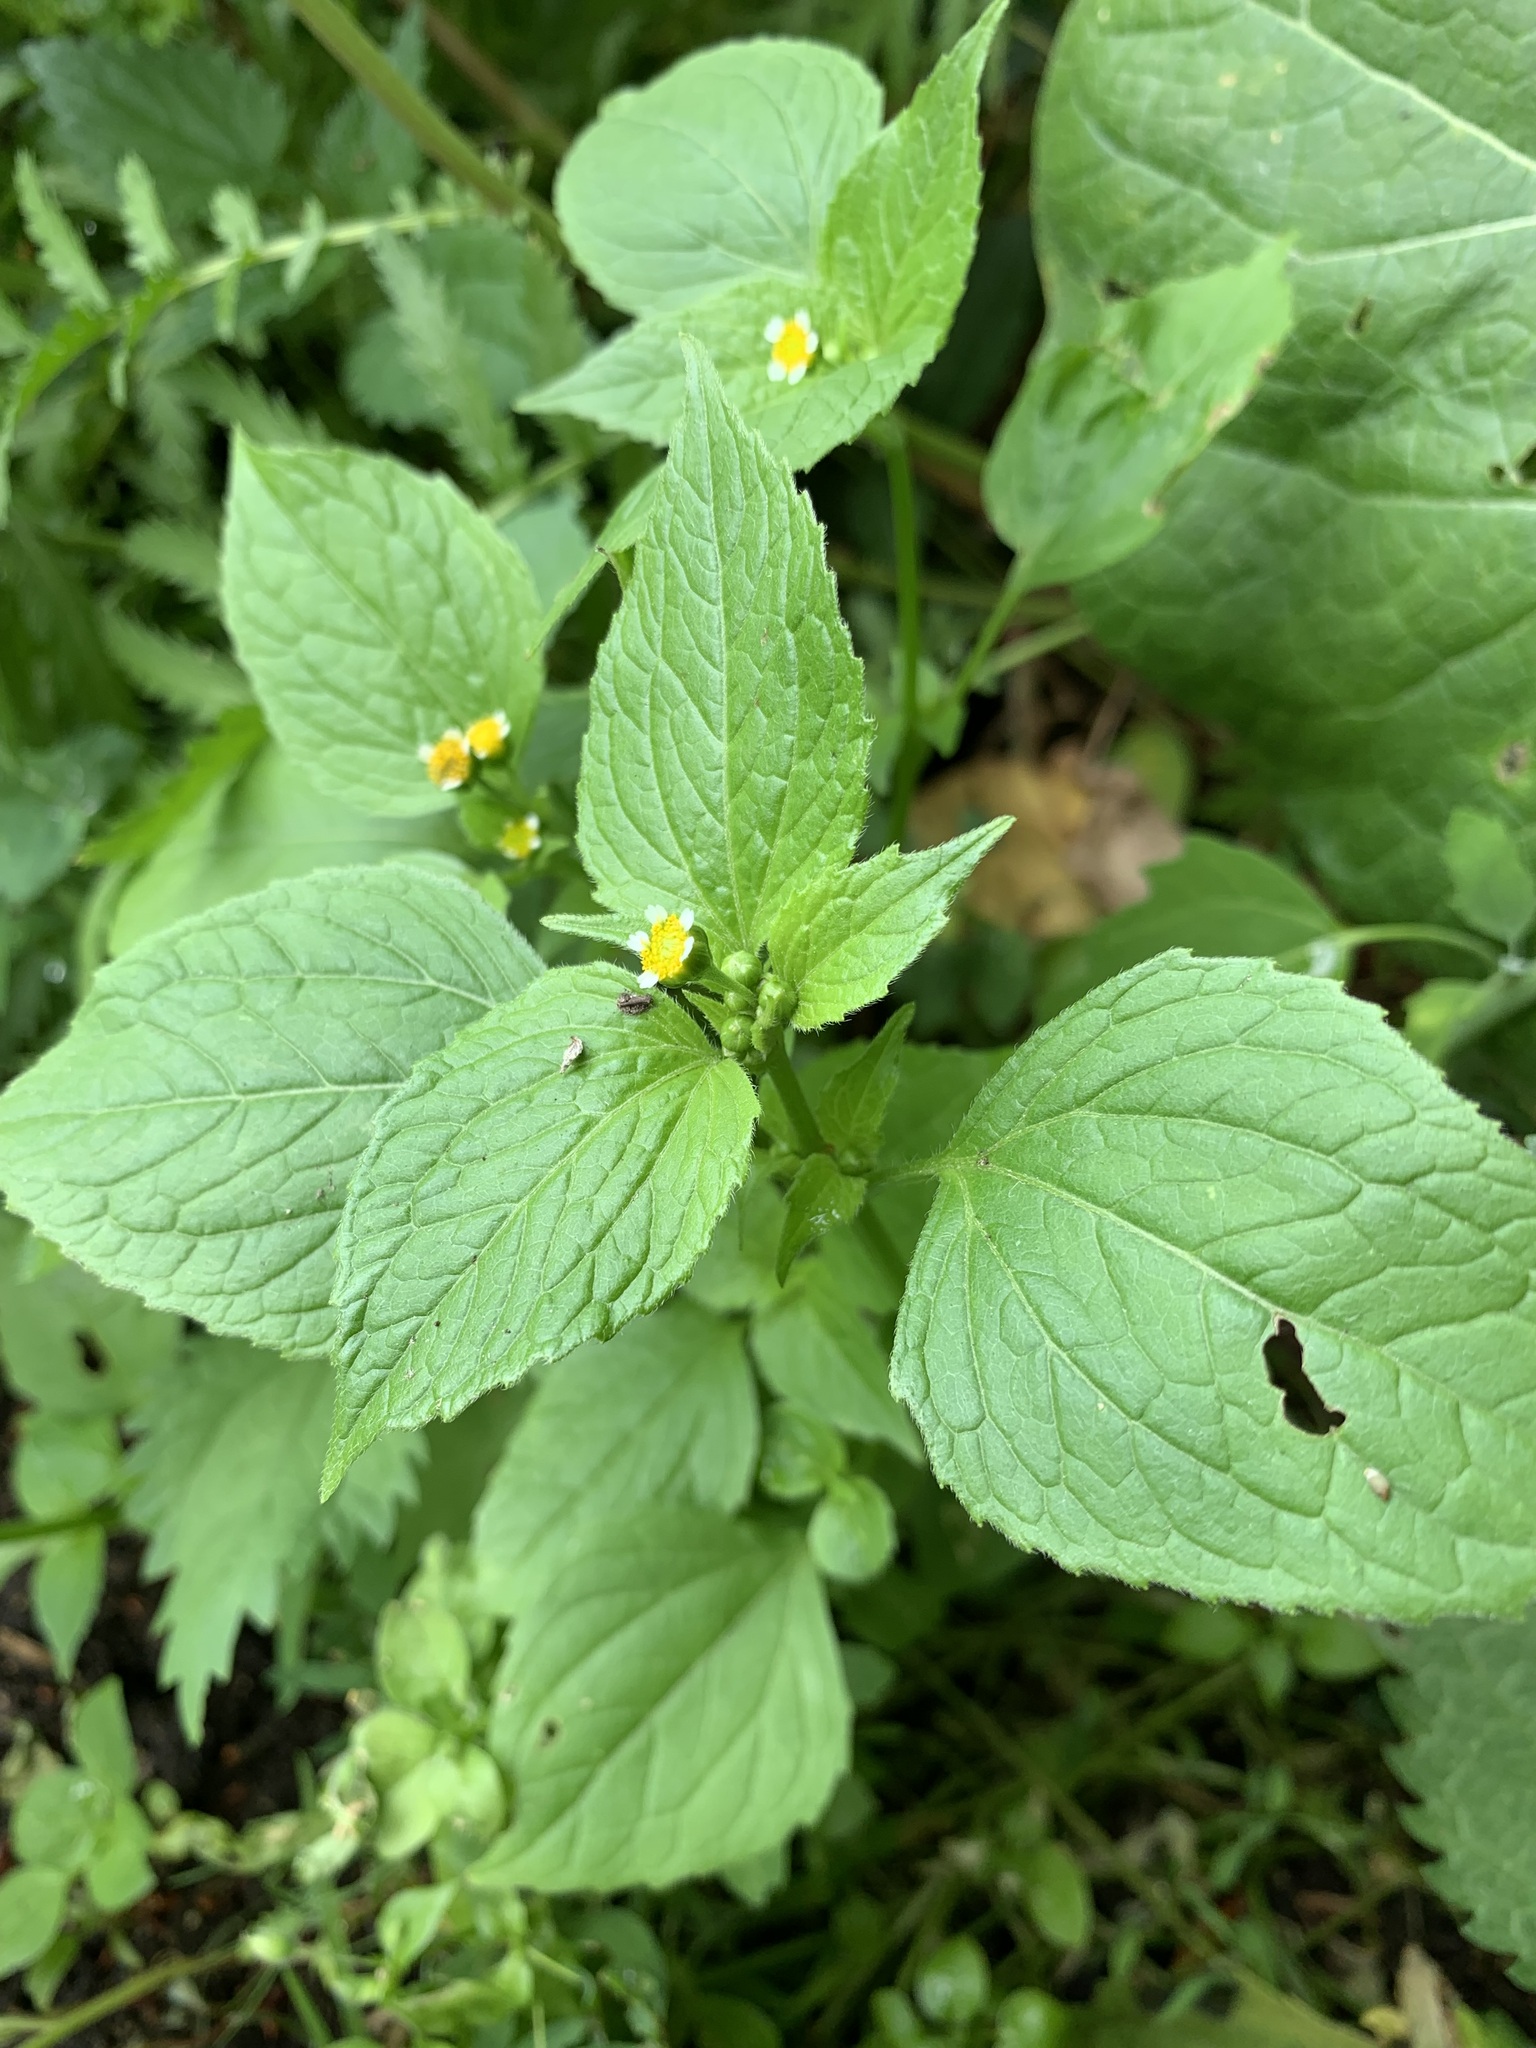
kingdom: Plantae
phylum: Tracheophyta
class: Magnoliopsida
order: Asterales
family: Asteraceae
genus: Galinsoga
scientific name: Galinsoga quadriradiata
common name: Shaggy soldier
